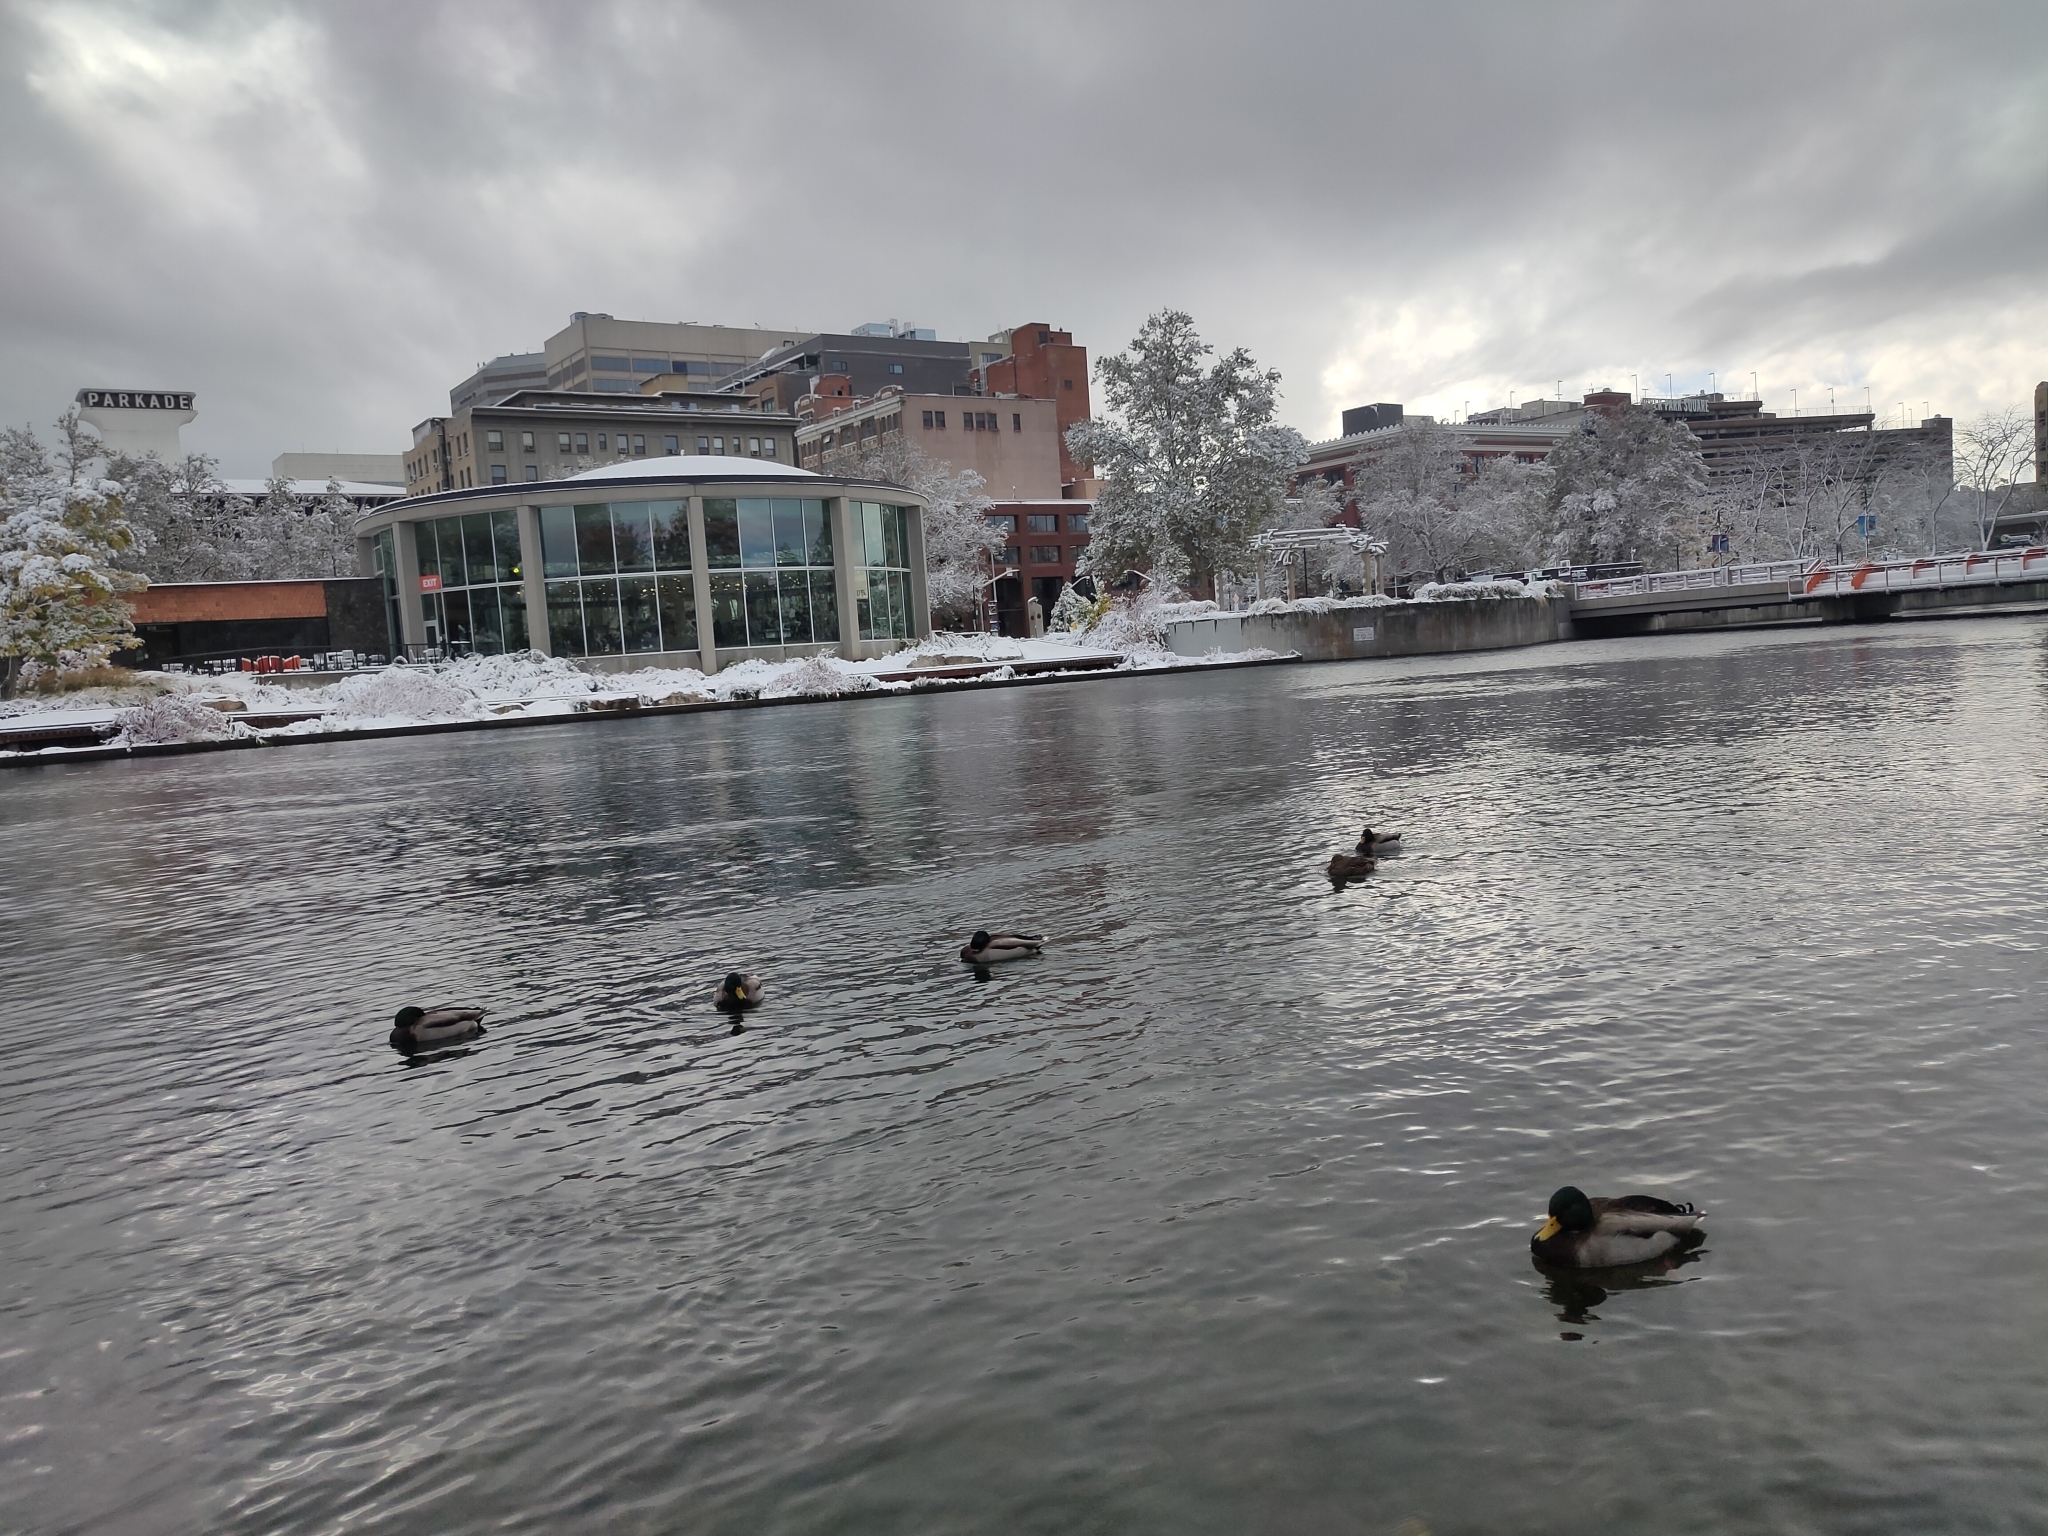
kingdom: Animalia
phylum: Chordata
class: Aves
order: Anseriformes
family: Anatidae
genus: Anas
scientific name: Anas platyrhynchos
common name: Mallard
